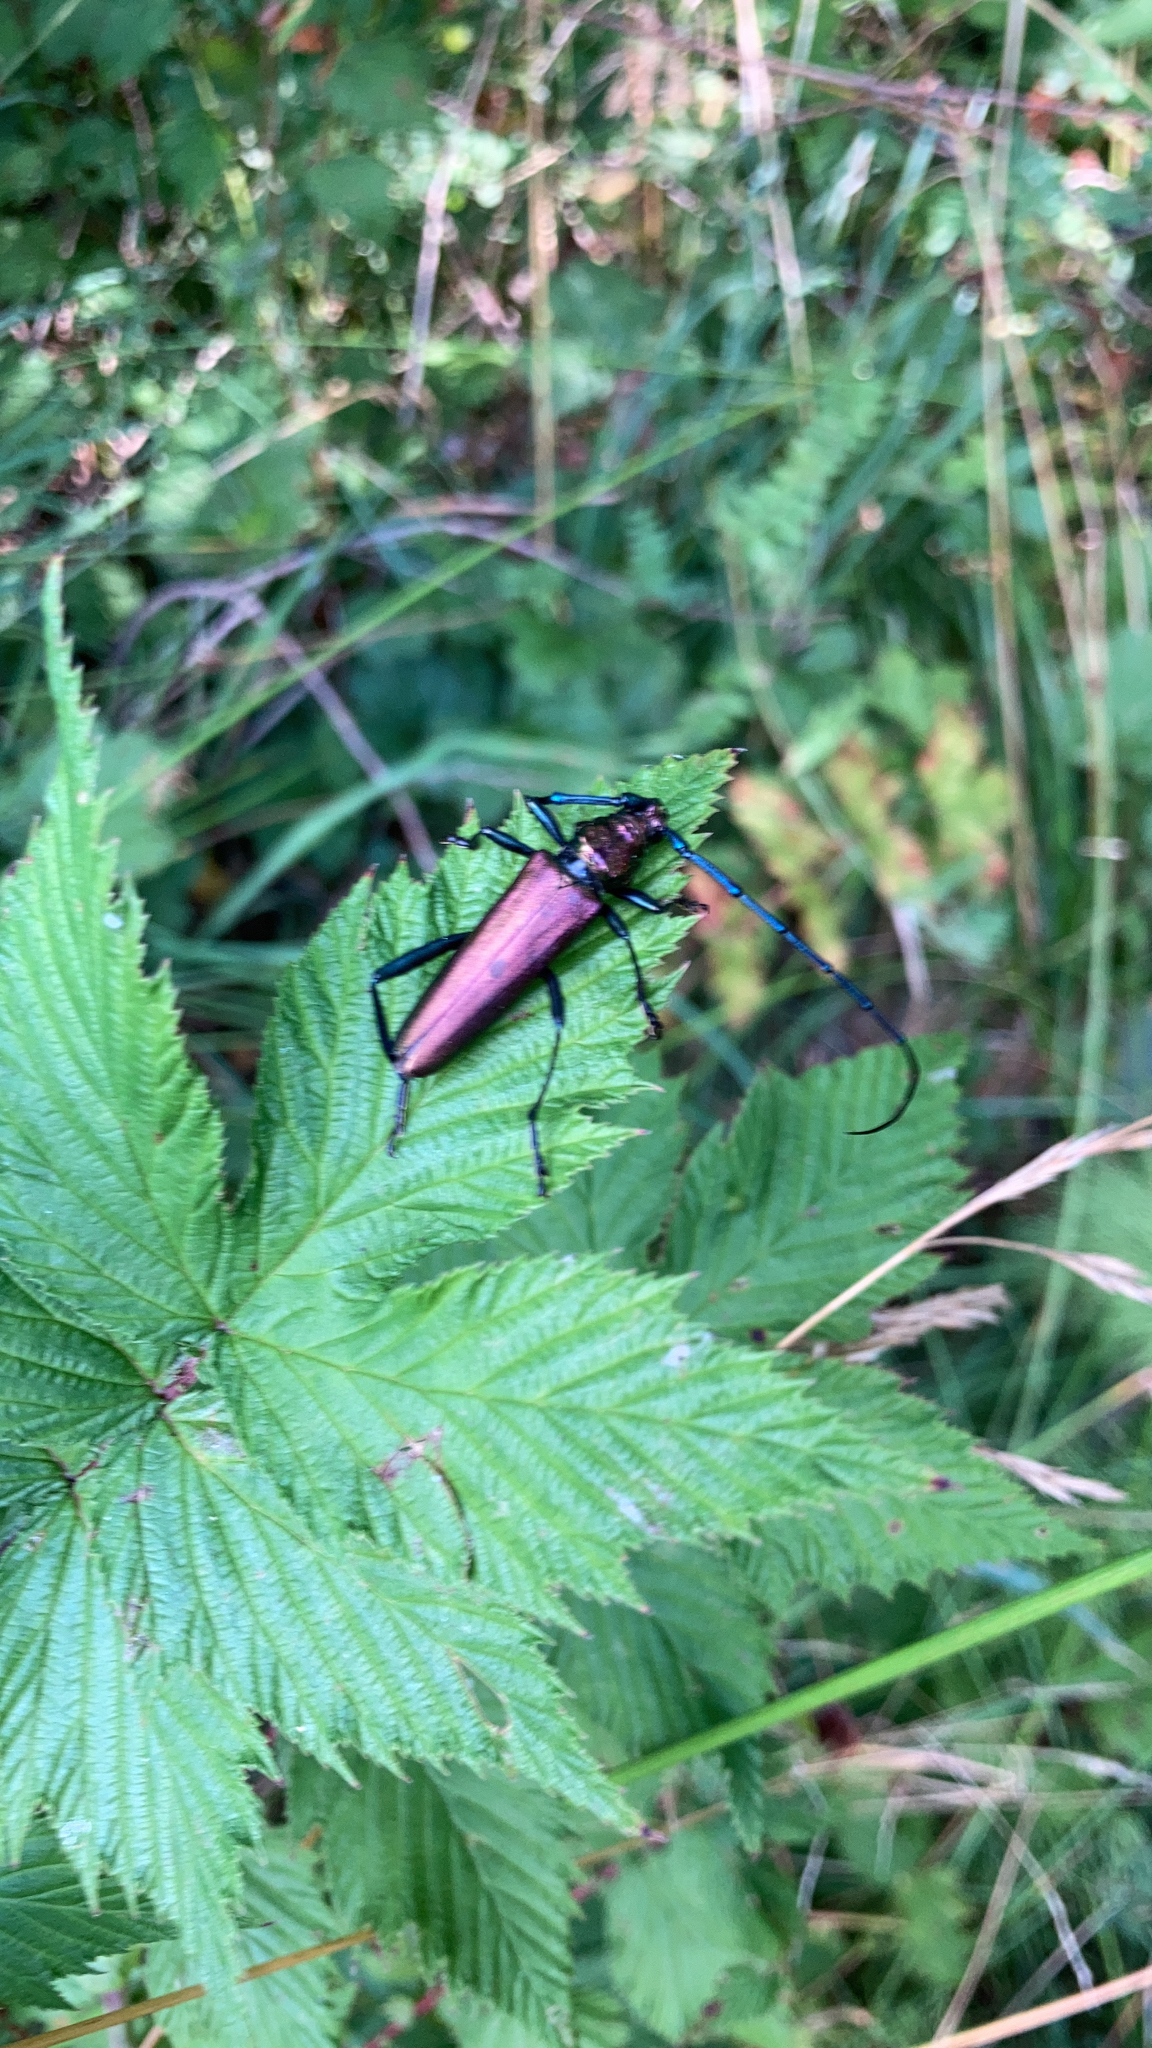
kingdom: Animalia
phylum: Arthropoda
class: Insecta
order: Coleoptera
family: Cerambycidae
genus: Aromia
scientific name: Aromia moschata
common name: Musk beetle
